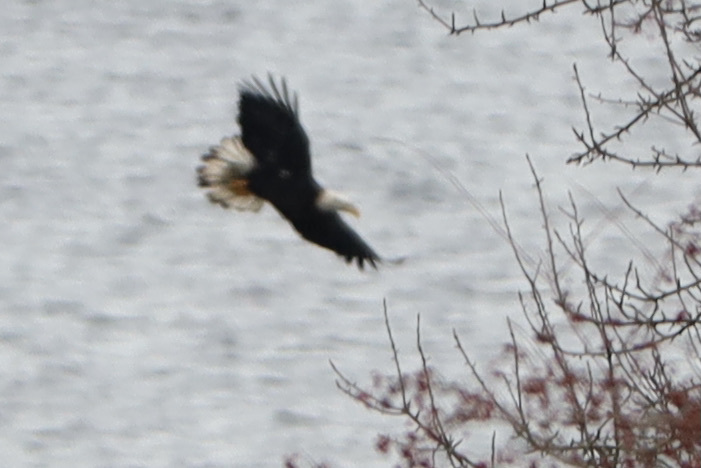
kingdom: Animalia
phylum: Chordata
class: Aves
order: Accipitriformes
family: Accipitridae
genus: Haliaeetus
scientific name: Haliaeetus leucocephalus
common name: Bald eagle
